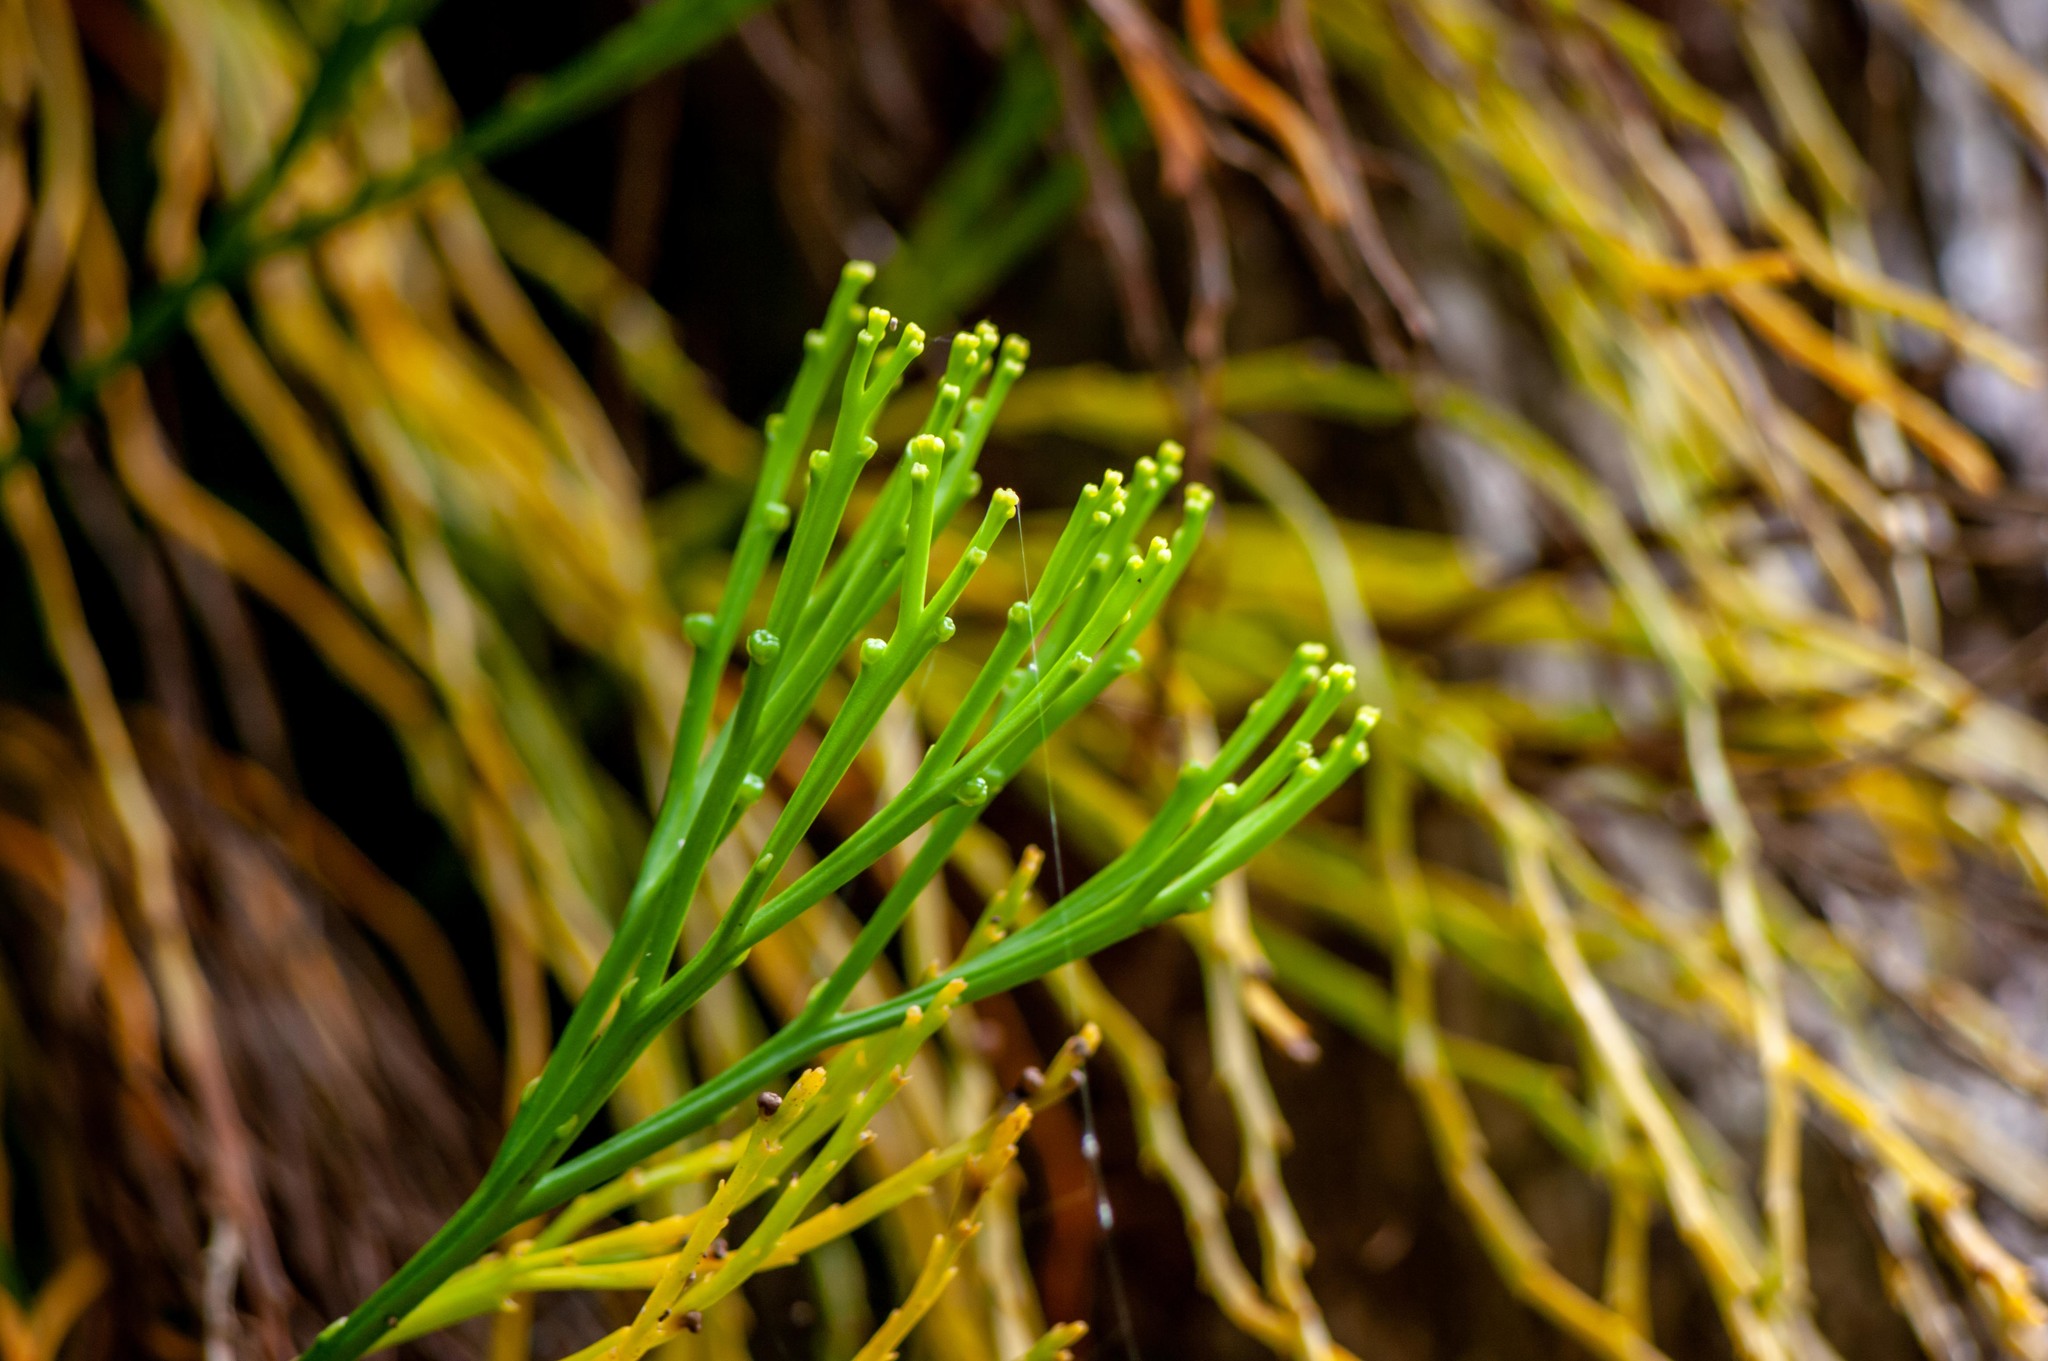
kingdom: Plantae
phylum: Tracheophyta
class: Polypodiopsida
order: Psilotales
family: Psilotaceae
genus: Psilotum
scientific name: Psilotum nudum
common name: Skeleton fork fern
